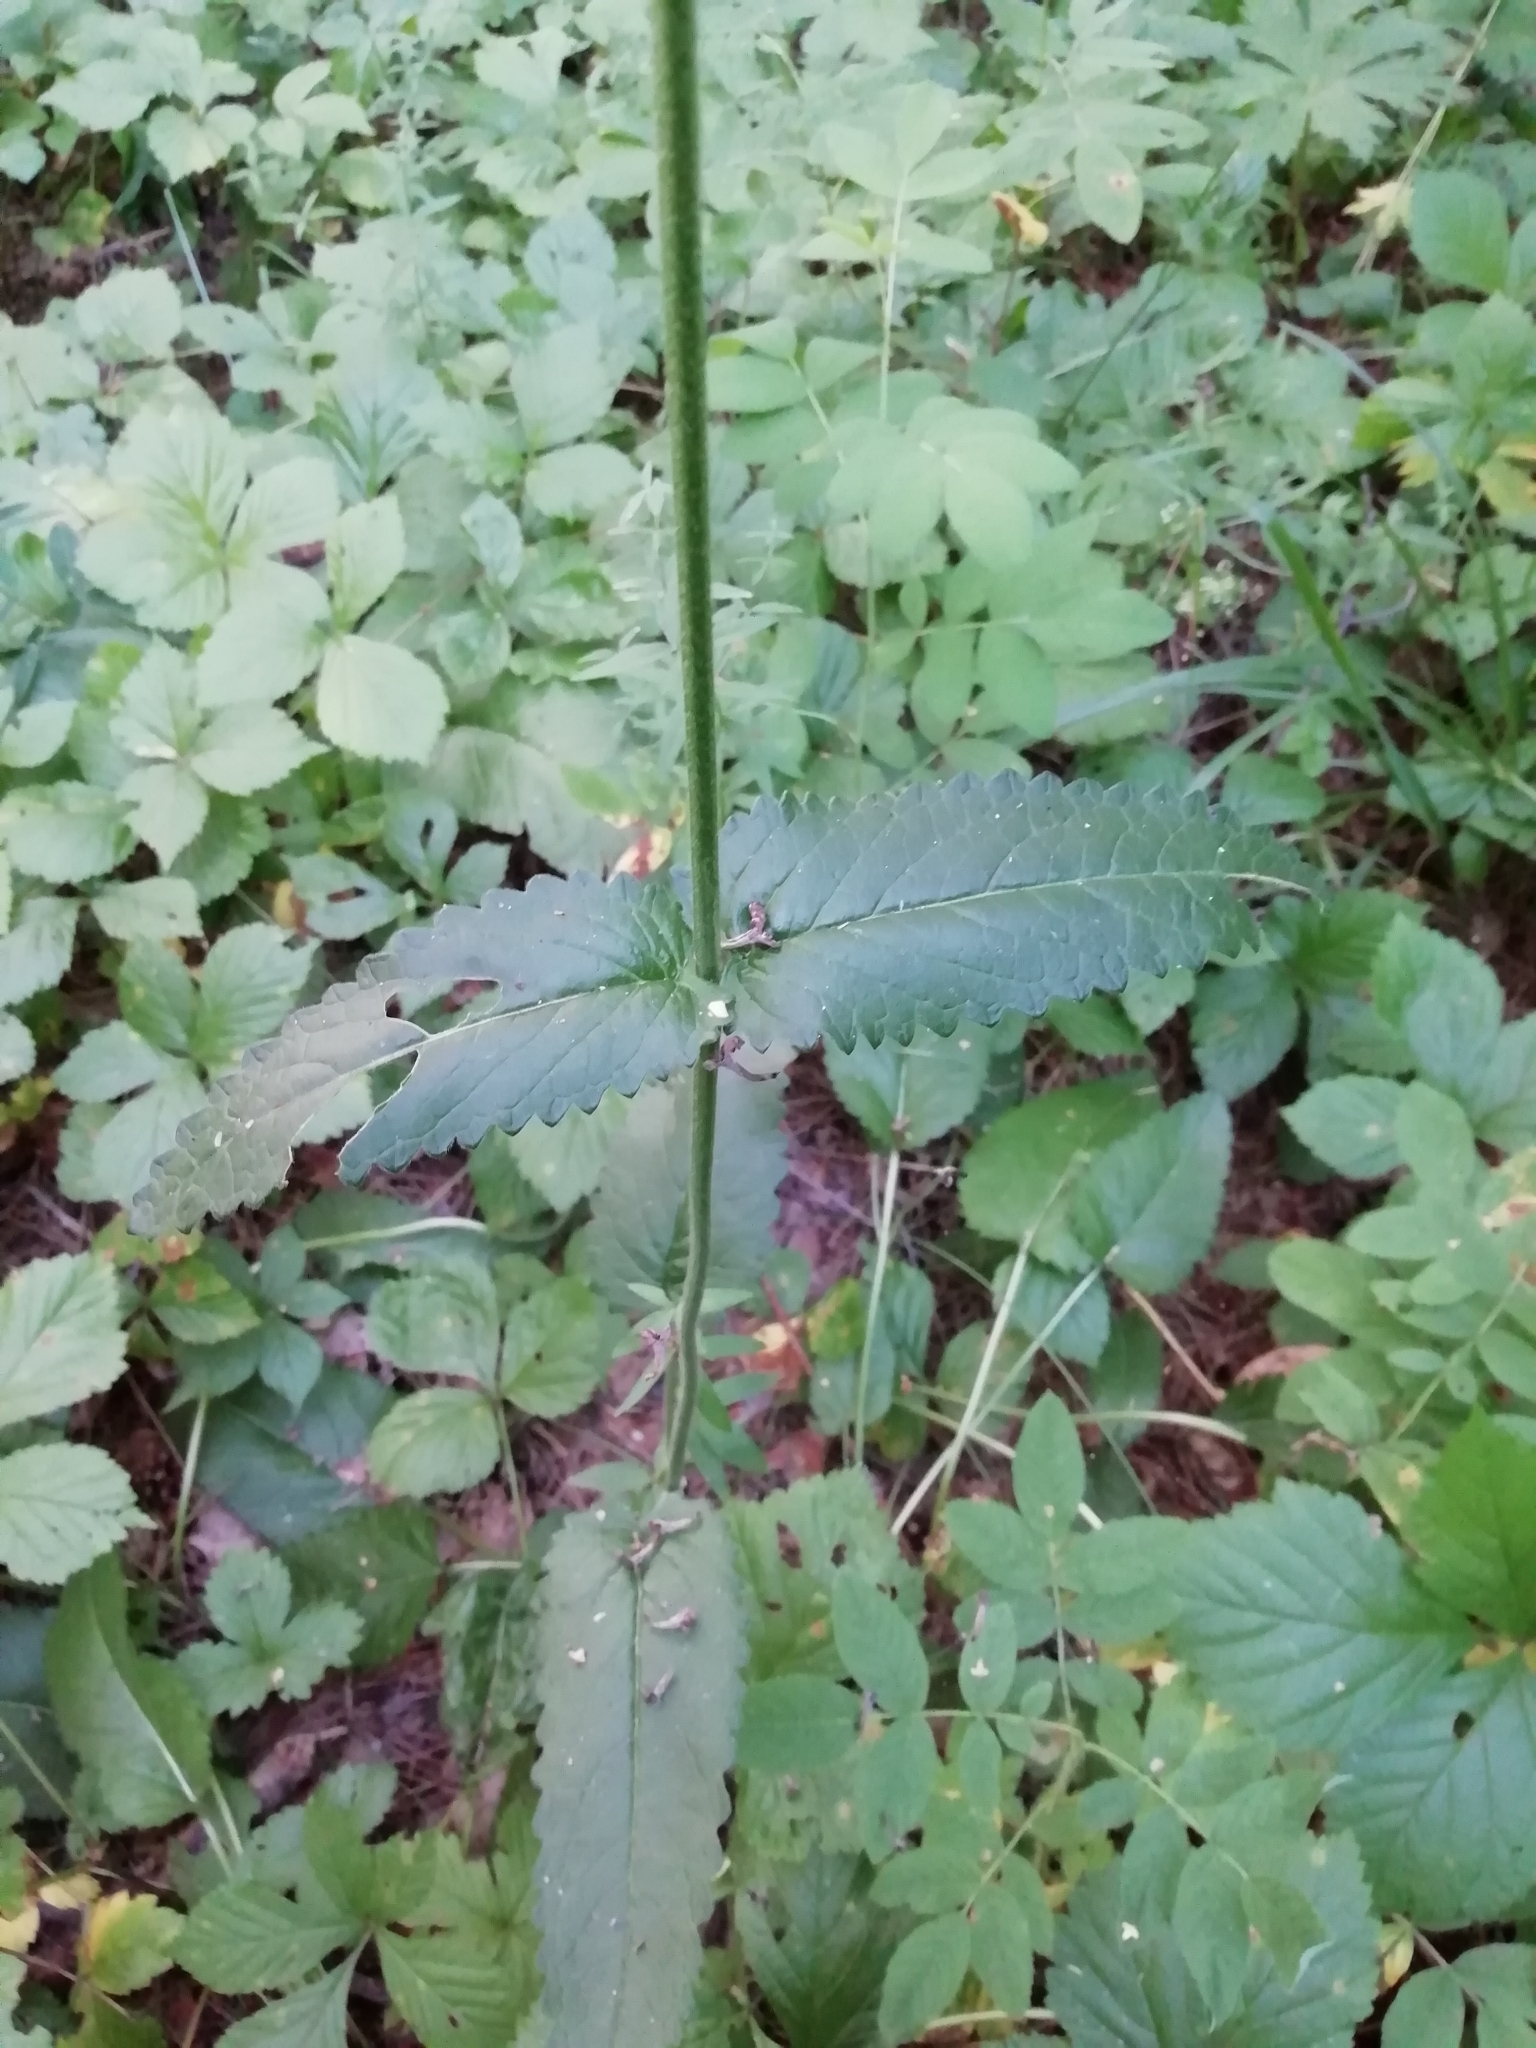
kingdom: Plantae
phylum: Tracheophyta
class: Magnoliopsida
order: Lamiales
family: Lamiaceae
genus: Betonica
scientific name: Betonica officinalis
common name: Bishop's-wort
